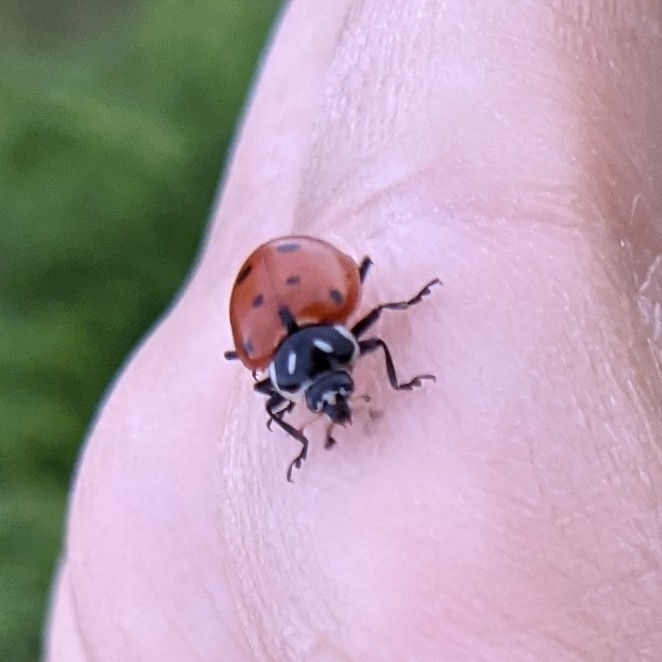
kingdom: Animalia
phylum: Arthropoda
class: Insecta
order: Coleoptera
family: Coccinellidae
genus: Hippodamia
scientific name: Hippodamia convergens
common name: Convergent lady beetle
